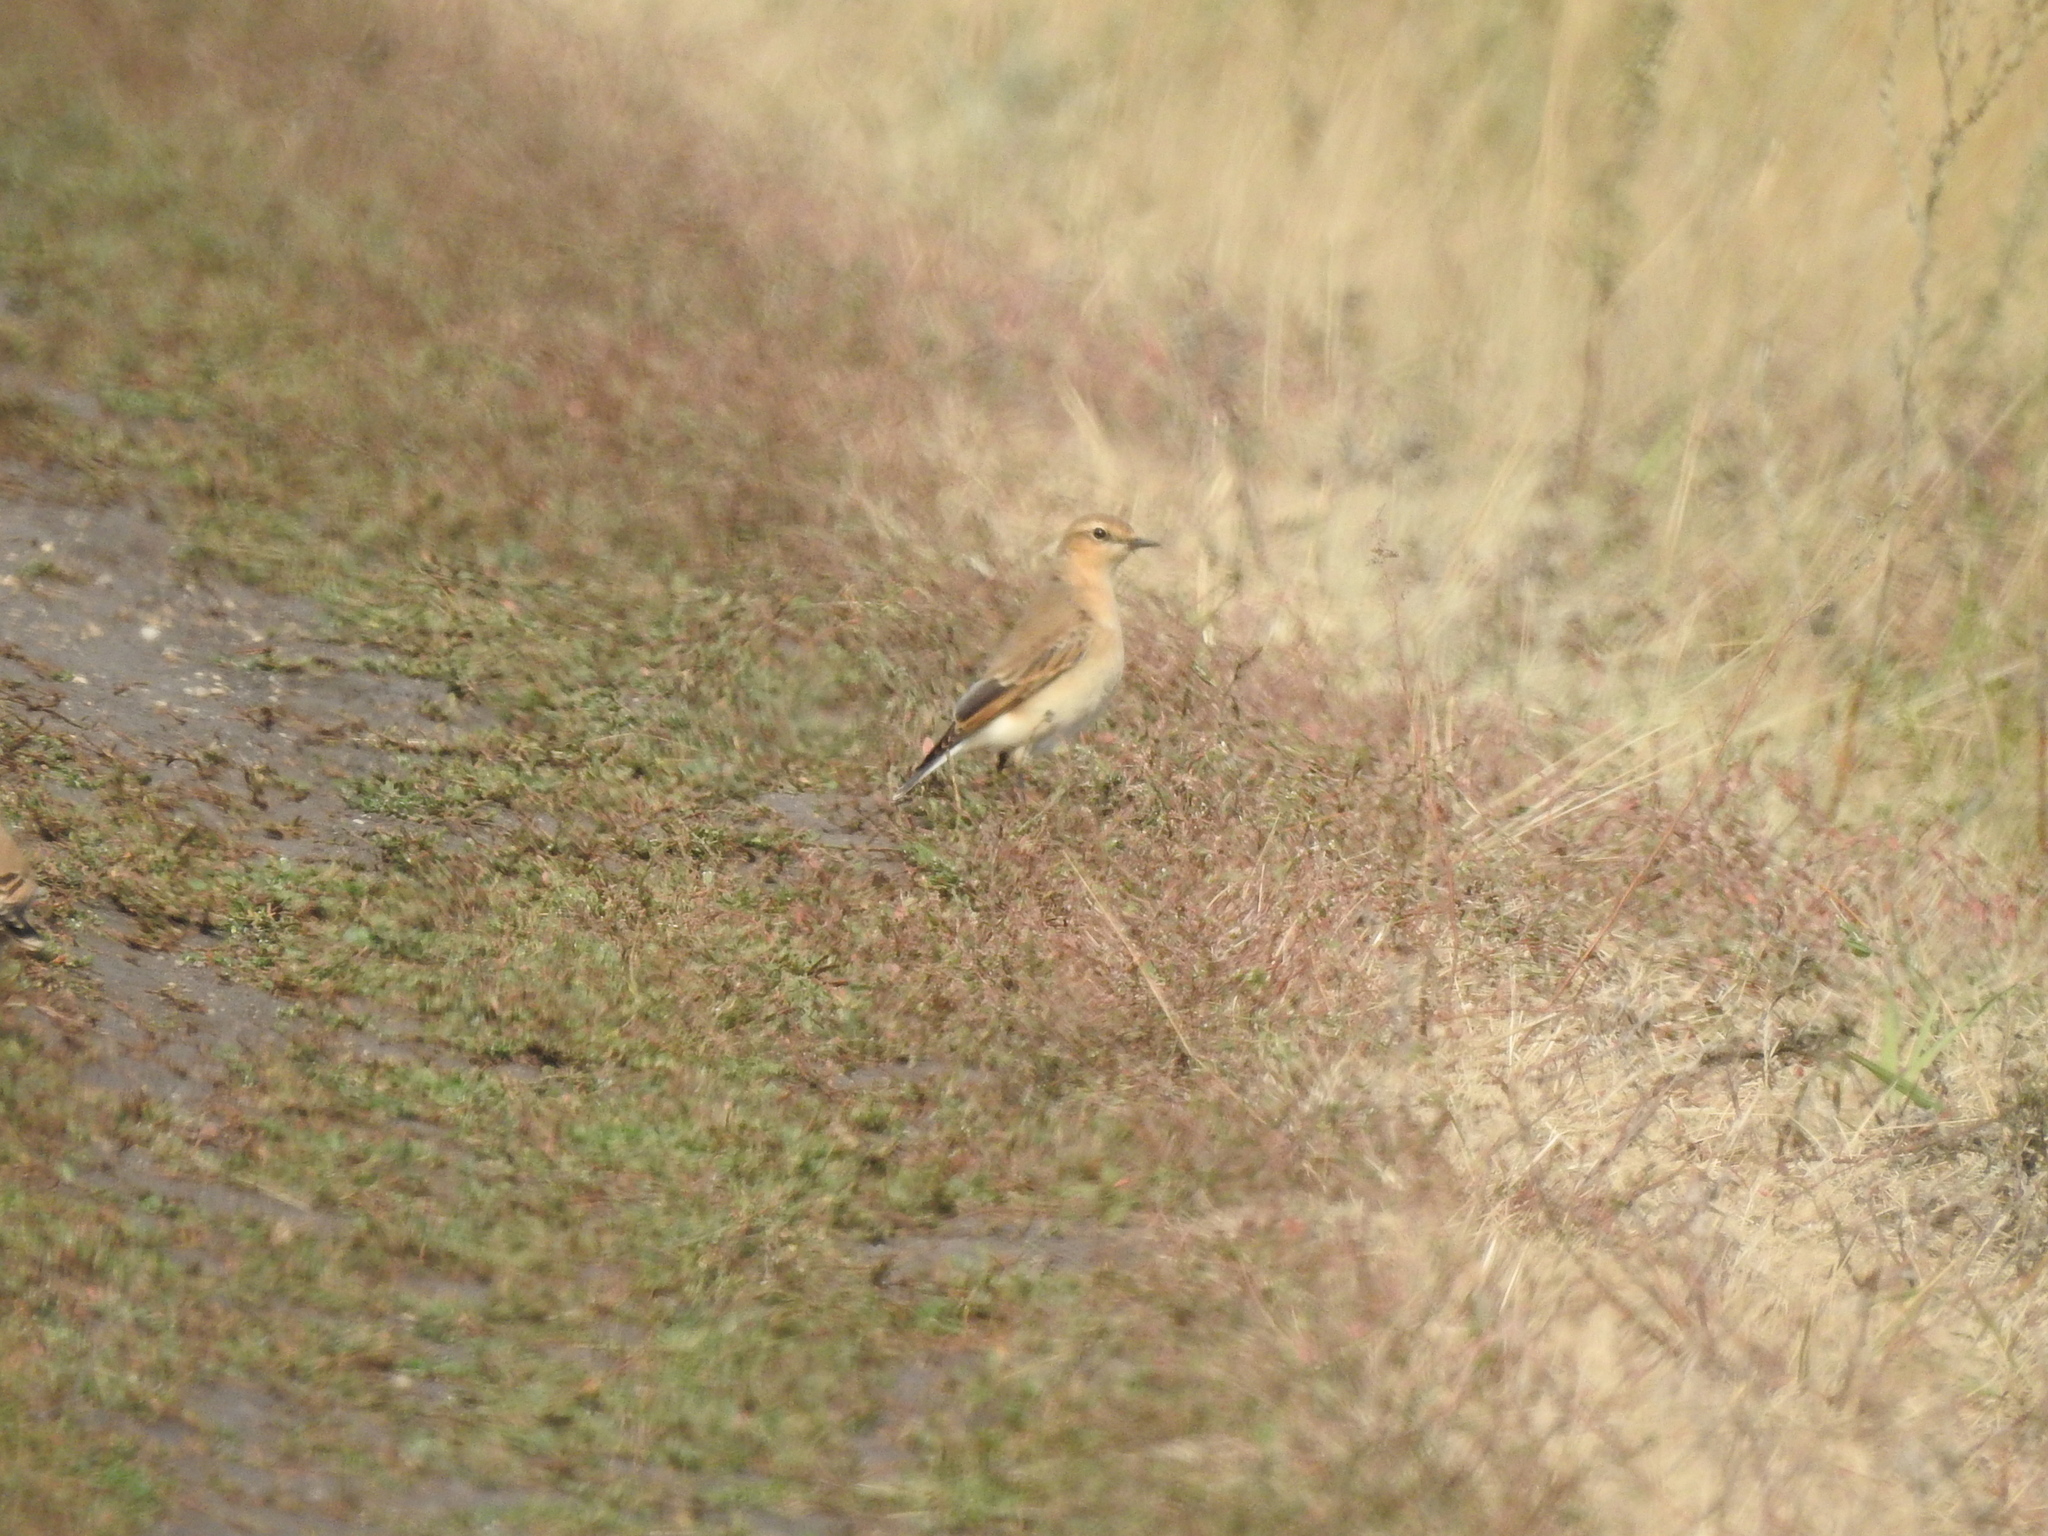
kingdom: Animalia
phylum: Chordata
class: Aves
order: Passeriformes
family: Muscicapidae
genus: Oenanthe
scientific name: Oenanthe oenanthe
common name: Northern wheatear
